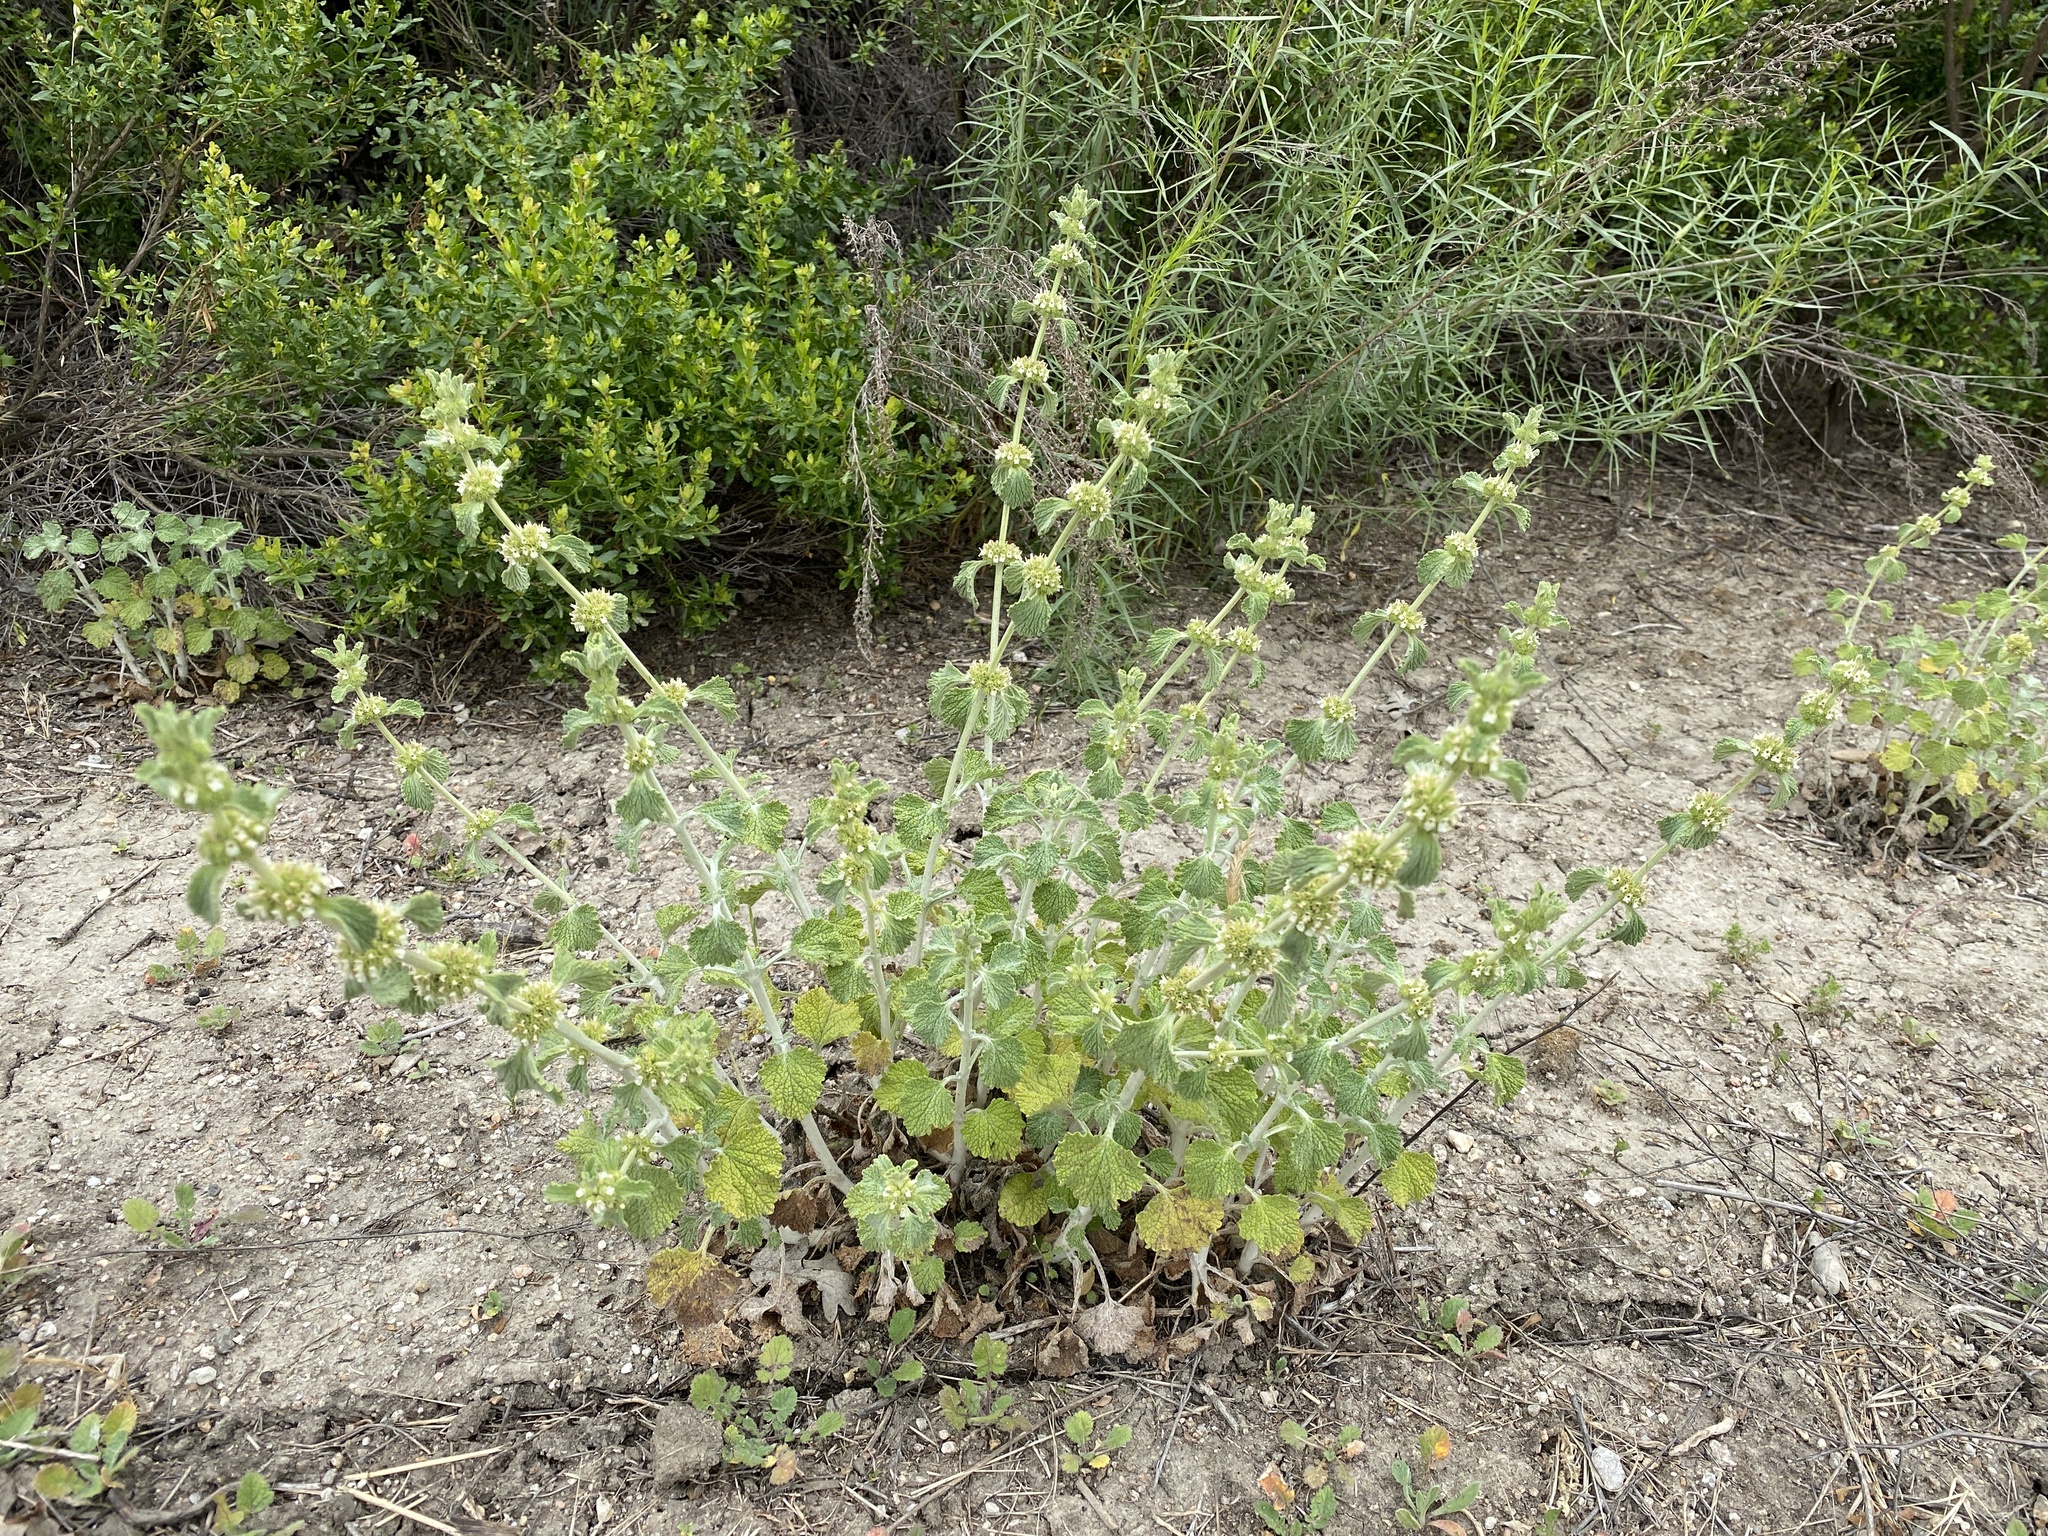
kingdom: Plantae
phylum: Tracheophyta
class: Magnoliopsida
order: Lamiales
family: Lamiaceae
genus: Marrubium
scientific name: Marrubium vulgare
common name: Horehound
